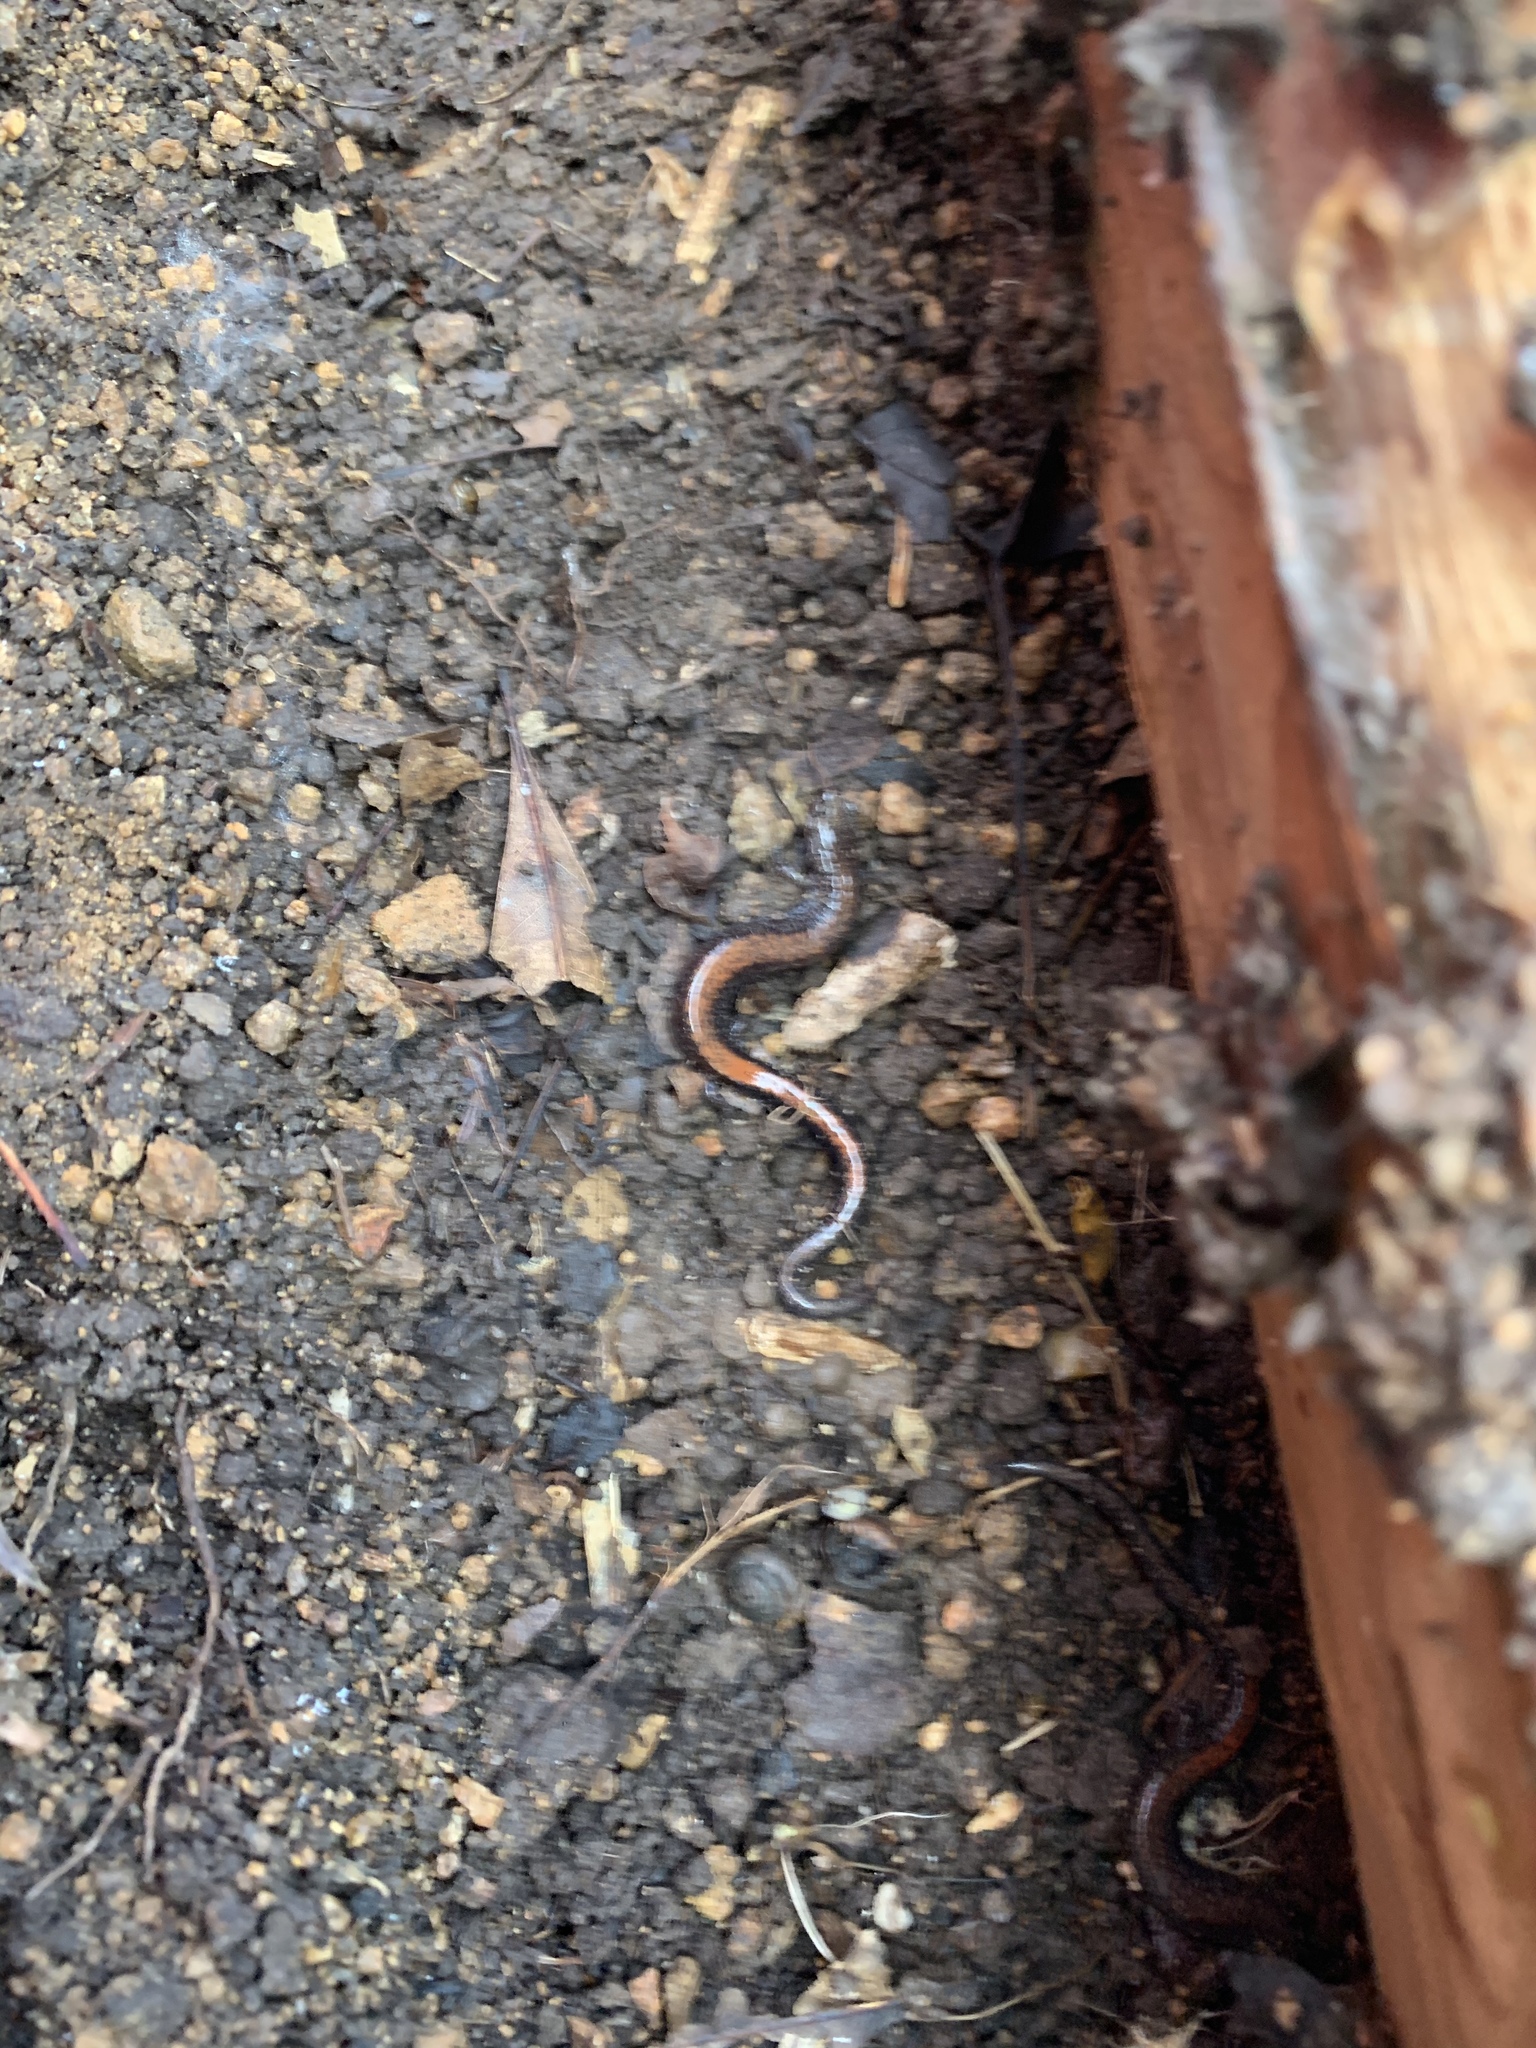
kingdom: Animalia
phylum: Chordata
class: Amphibia
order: Caudata
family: Plethodontidae
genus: Plethodon
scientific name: Plethodon cinereus
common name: Redback salamander
